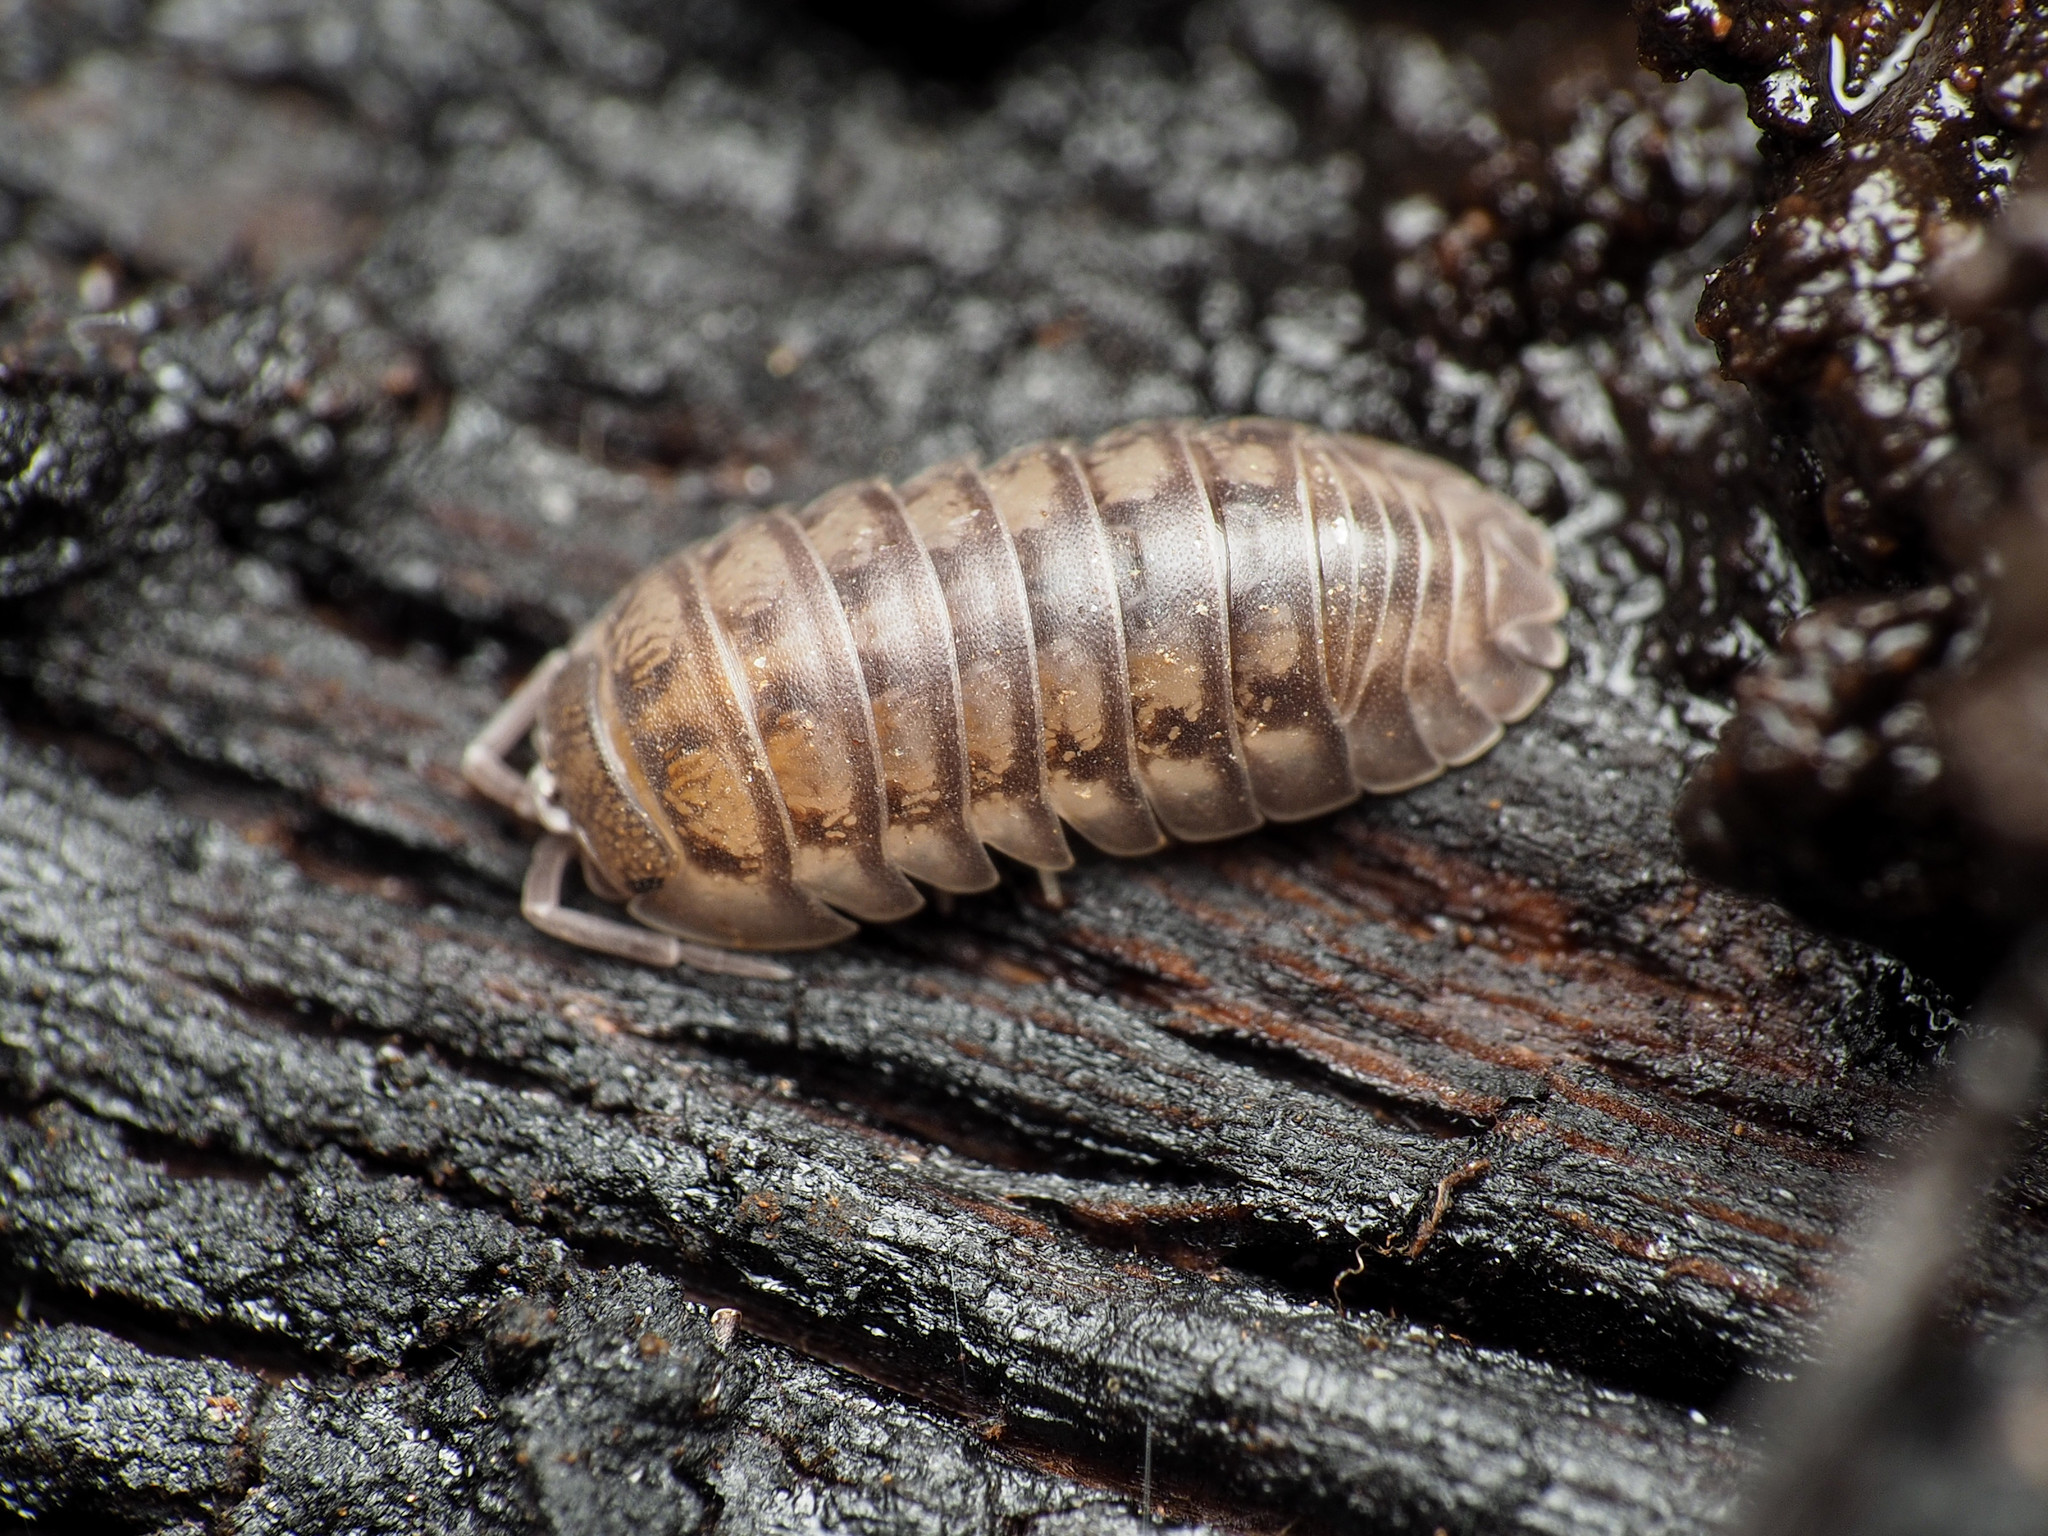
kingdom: Animalia
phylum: Arthropoda
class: Malacostraca
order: Isopoda
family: Armadillidiidae
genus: Armadillidium
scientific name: Armadillidium nasatum
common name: Isopod
